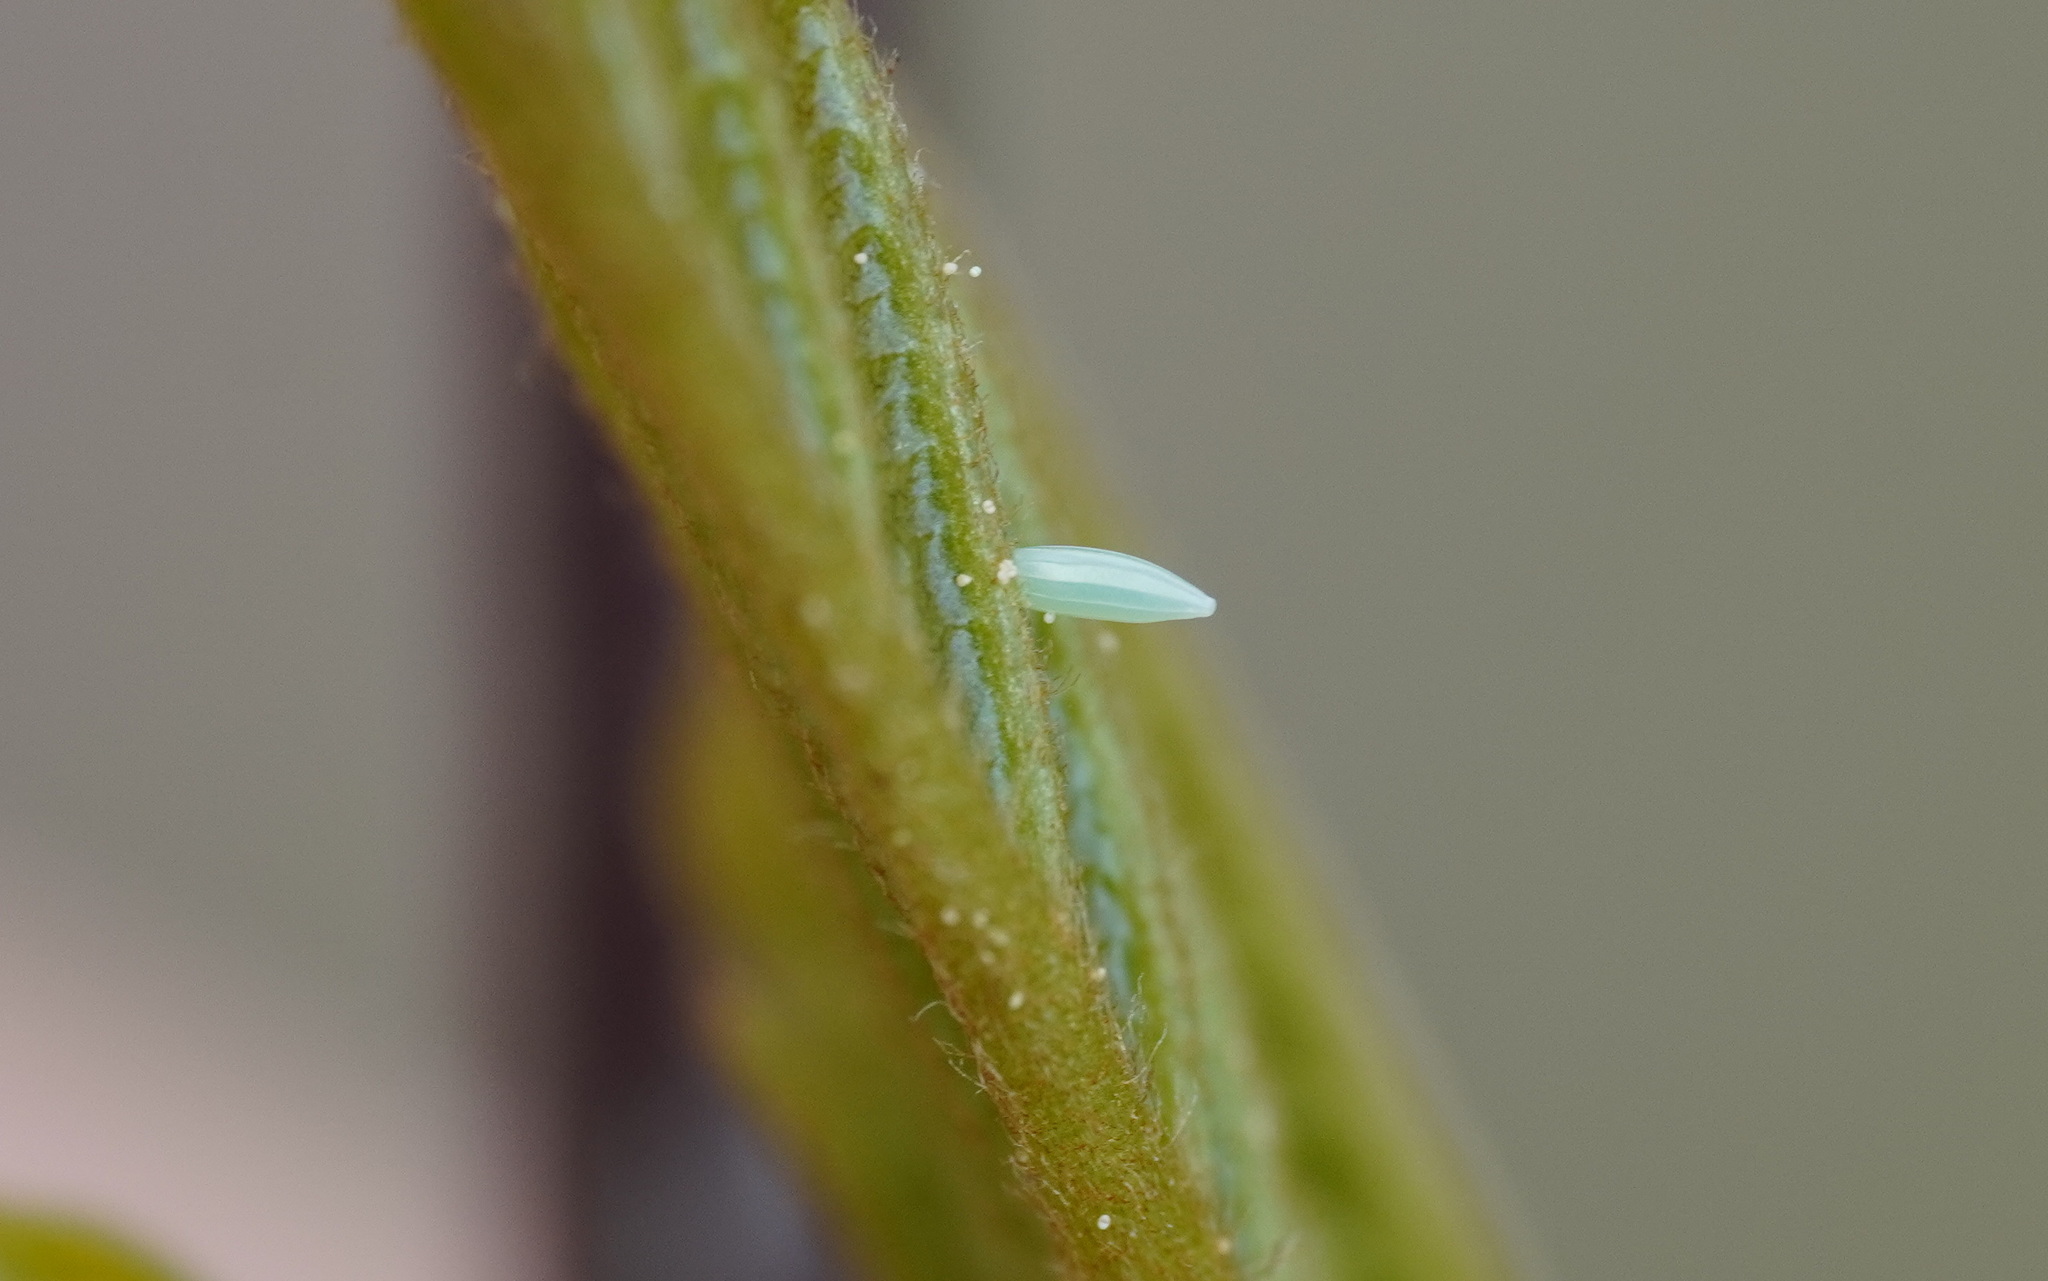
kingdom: Animalia
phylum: Arthropoda
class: Insecta
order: Lepidoptera
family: Pieridae
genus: Gonepteryx
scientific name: Gonepteryx rhamni
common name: Brimstone
